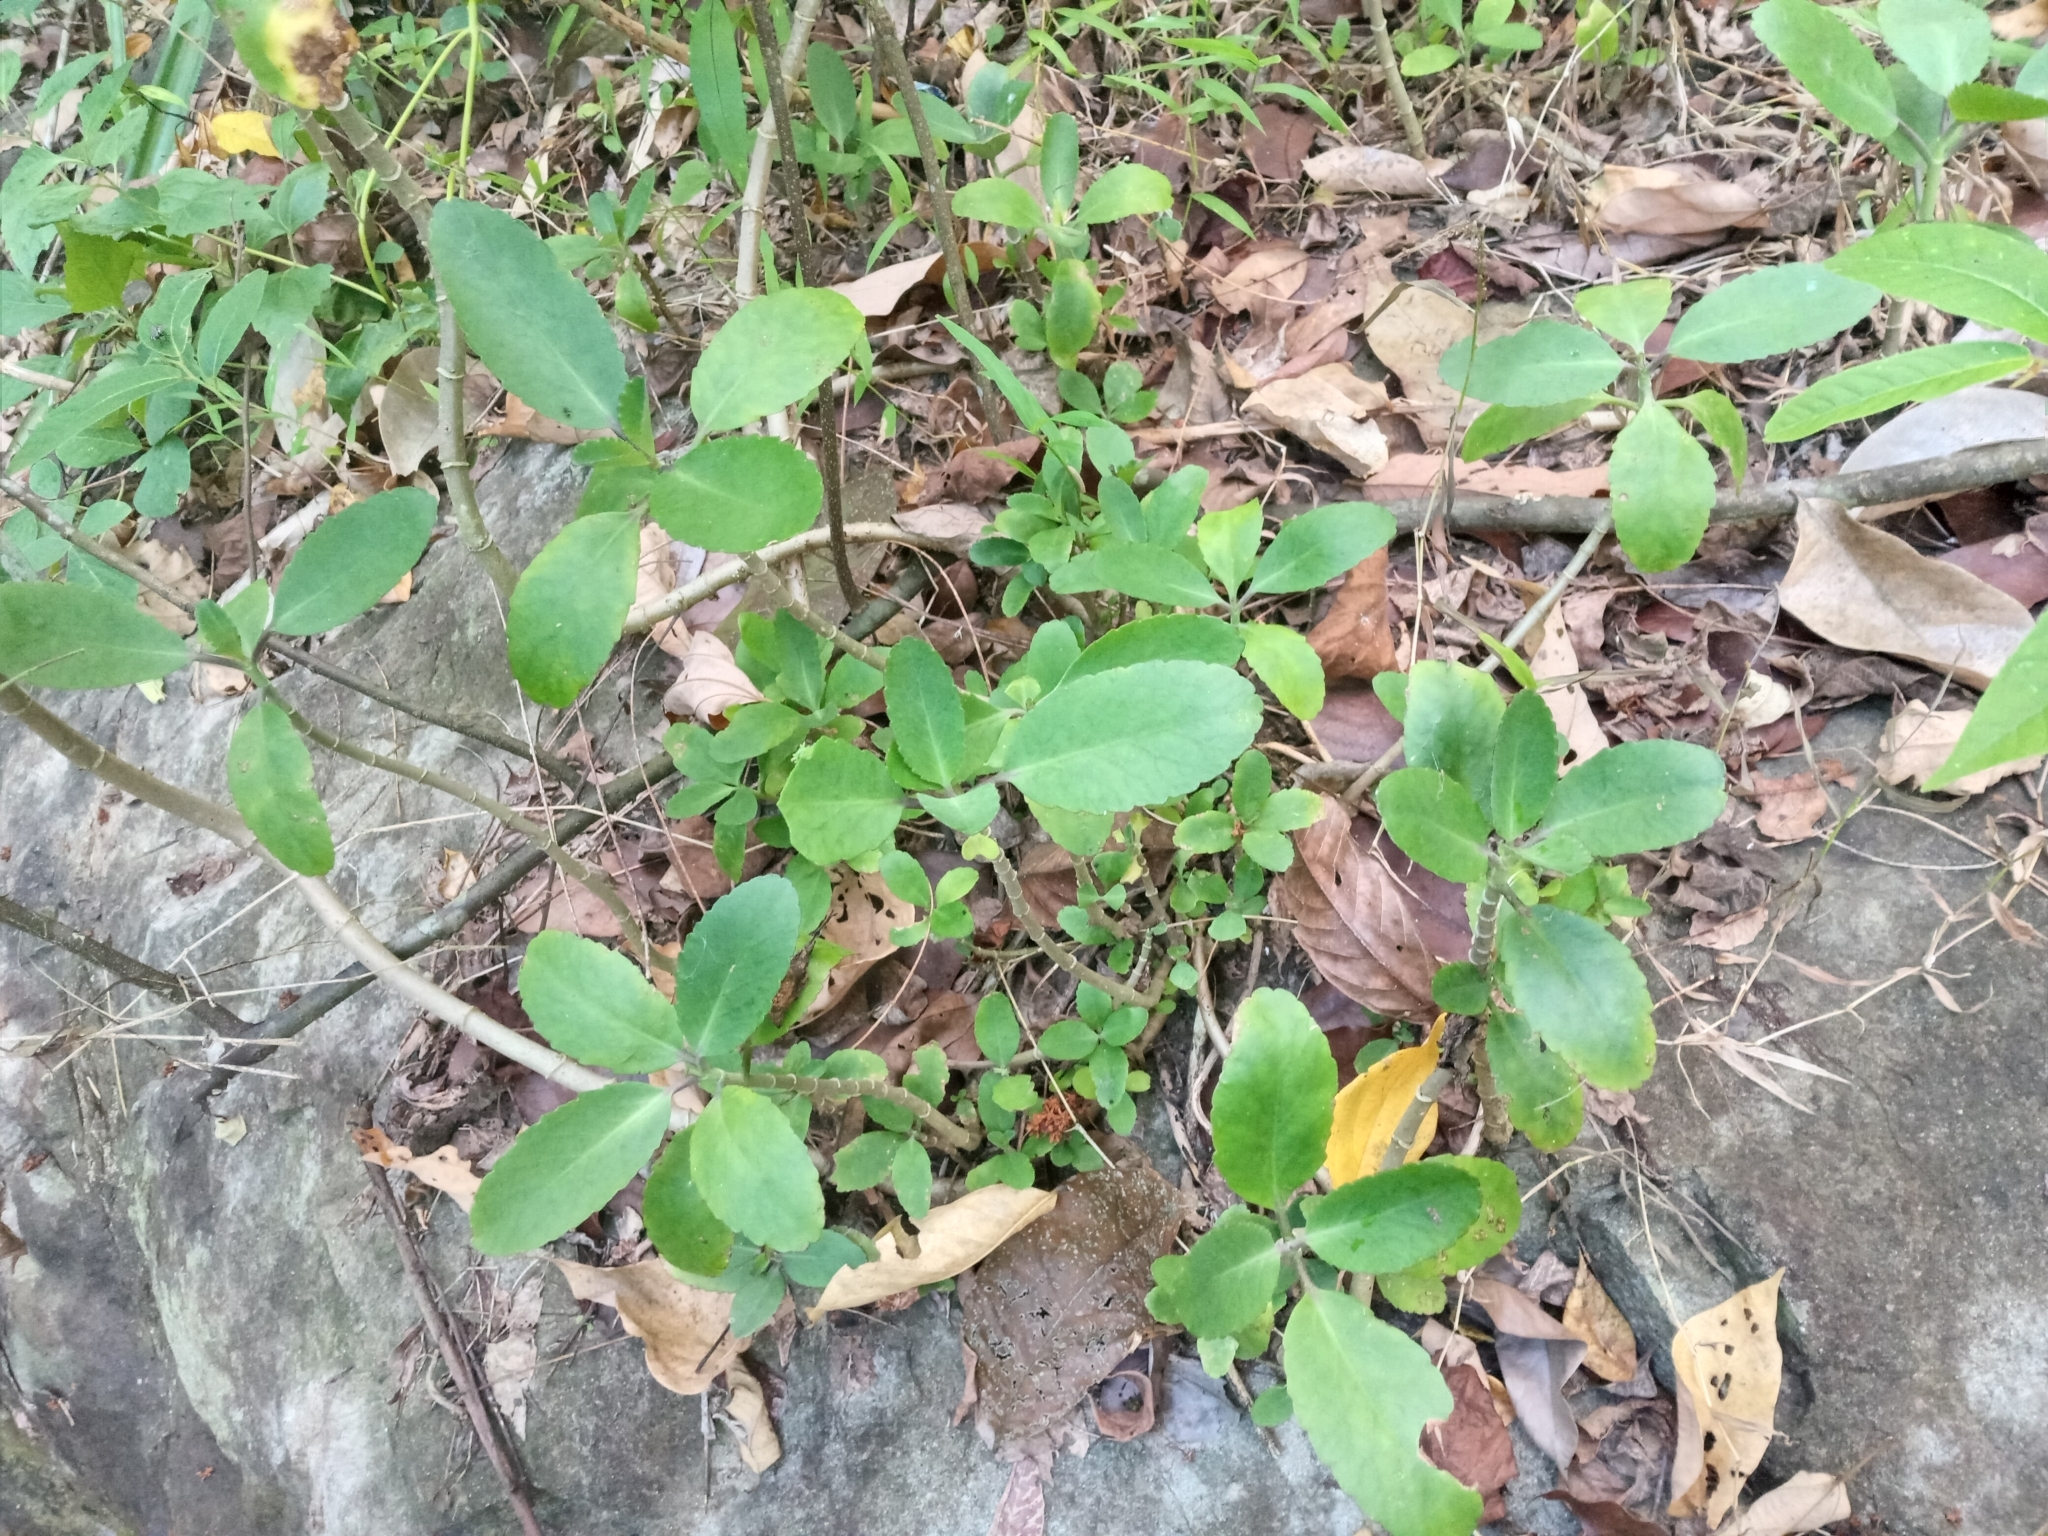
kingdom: Plantae
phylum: Tracheophyta
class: Magnoliopsida
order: Saxifragales
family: Crassulaceae
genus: Kalanchoe
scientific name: Kalanchoe pinnata
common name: Cathedral bells
